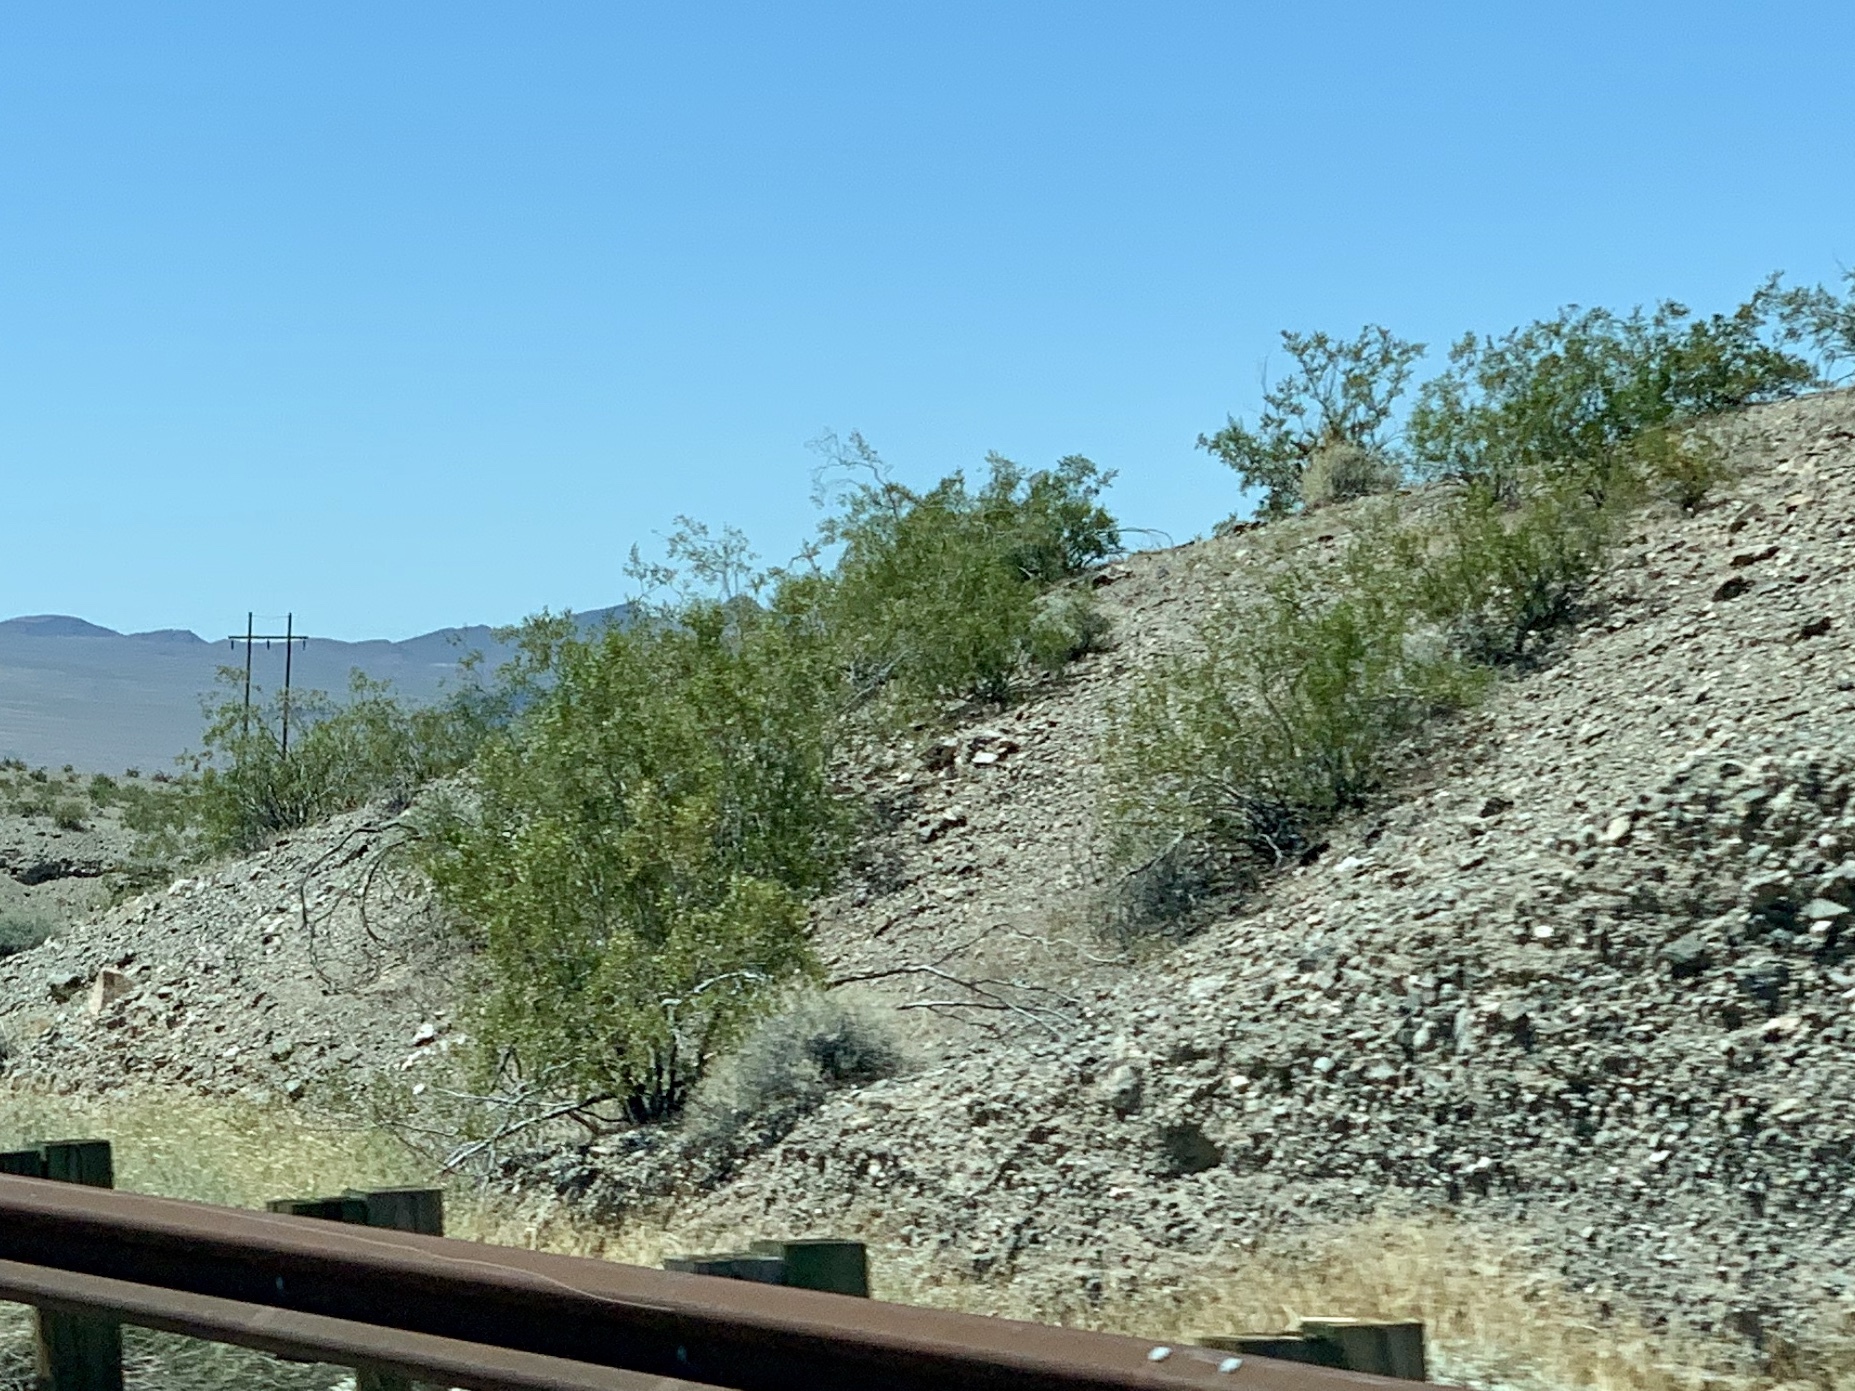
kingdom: Plantae
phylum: Tracheophyta
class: Magnoliopsida
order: Zygophyllales
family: Zygophyllaceae
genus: Larrea
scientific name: Larrea tridentata
